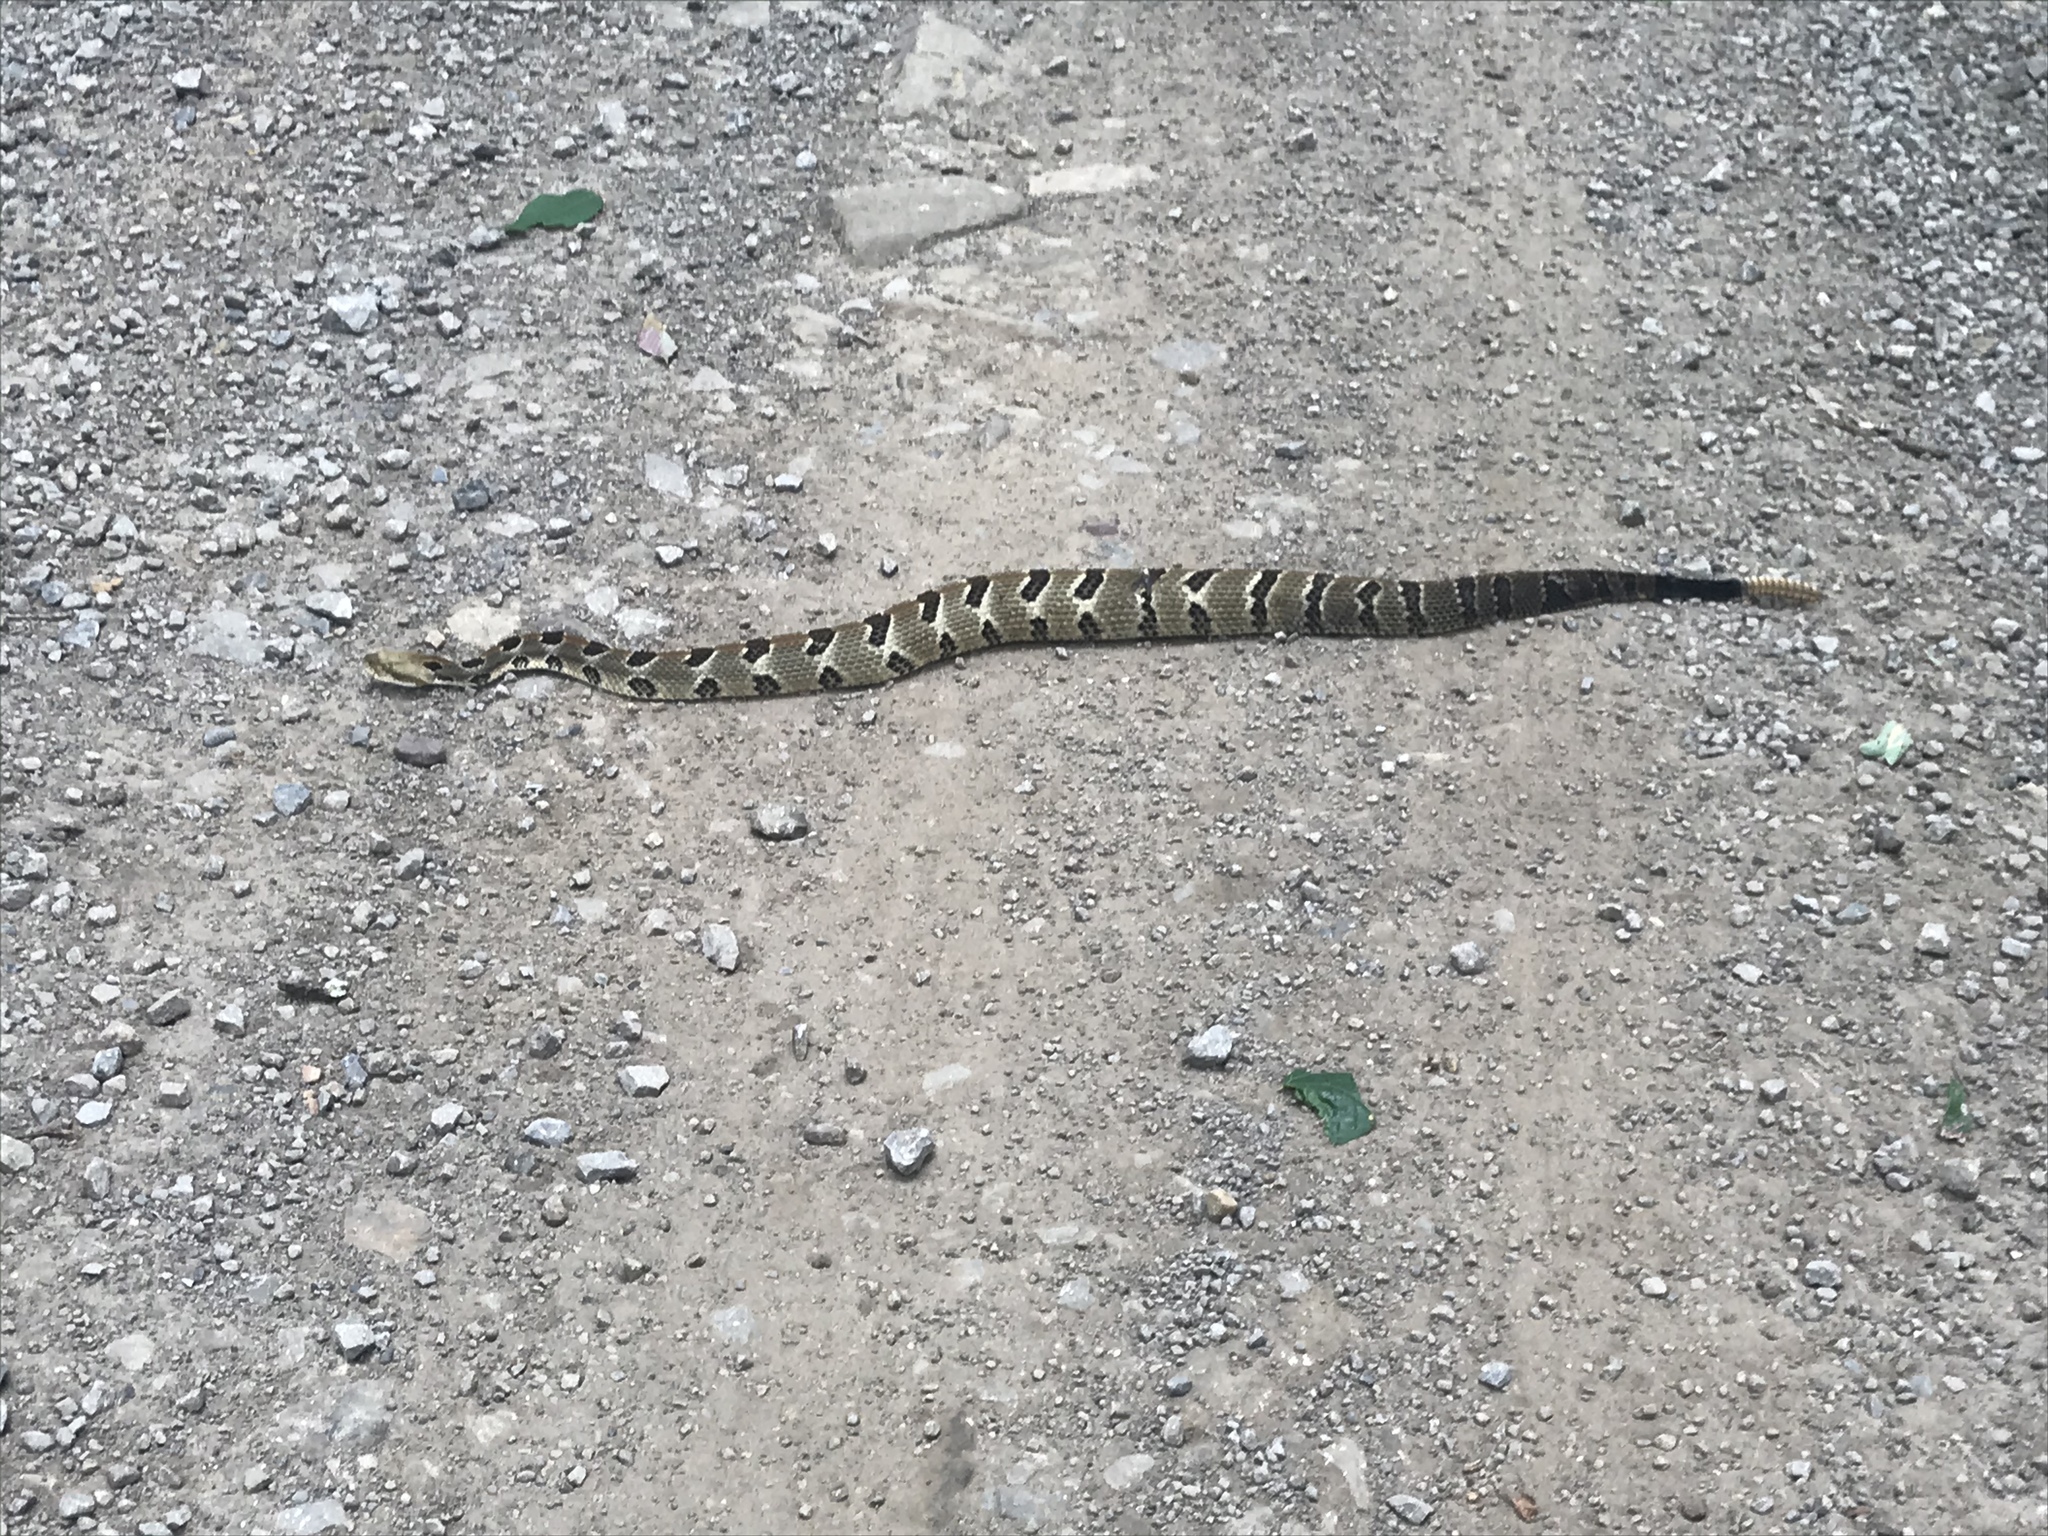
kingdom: Animalia
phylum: Chordata
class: Squamata
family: Viperidae
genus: Crotalus
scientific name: Crotalus horridus
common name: Timber rattlesnake
